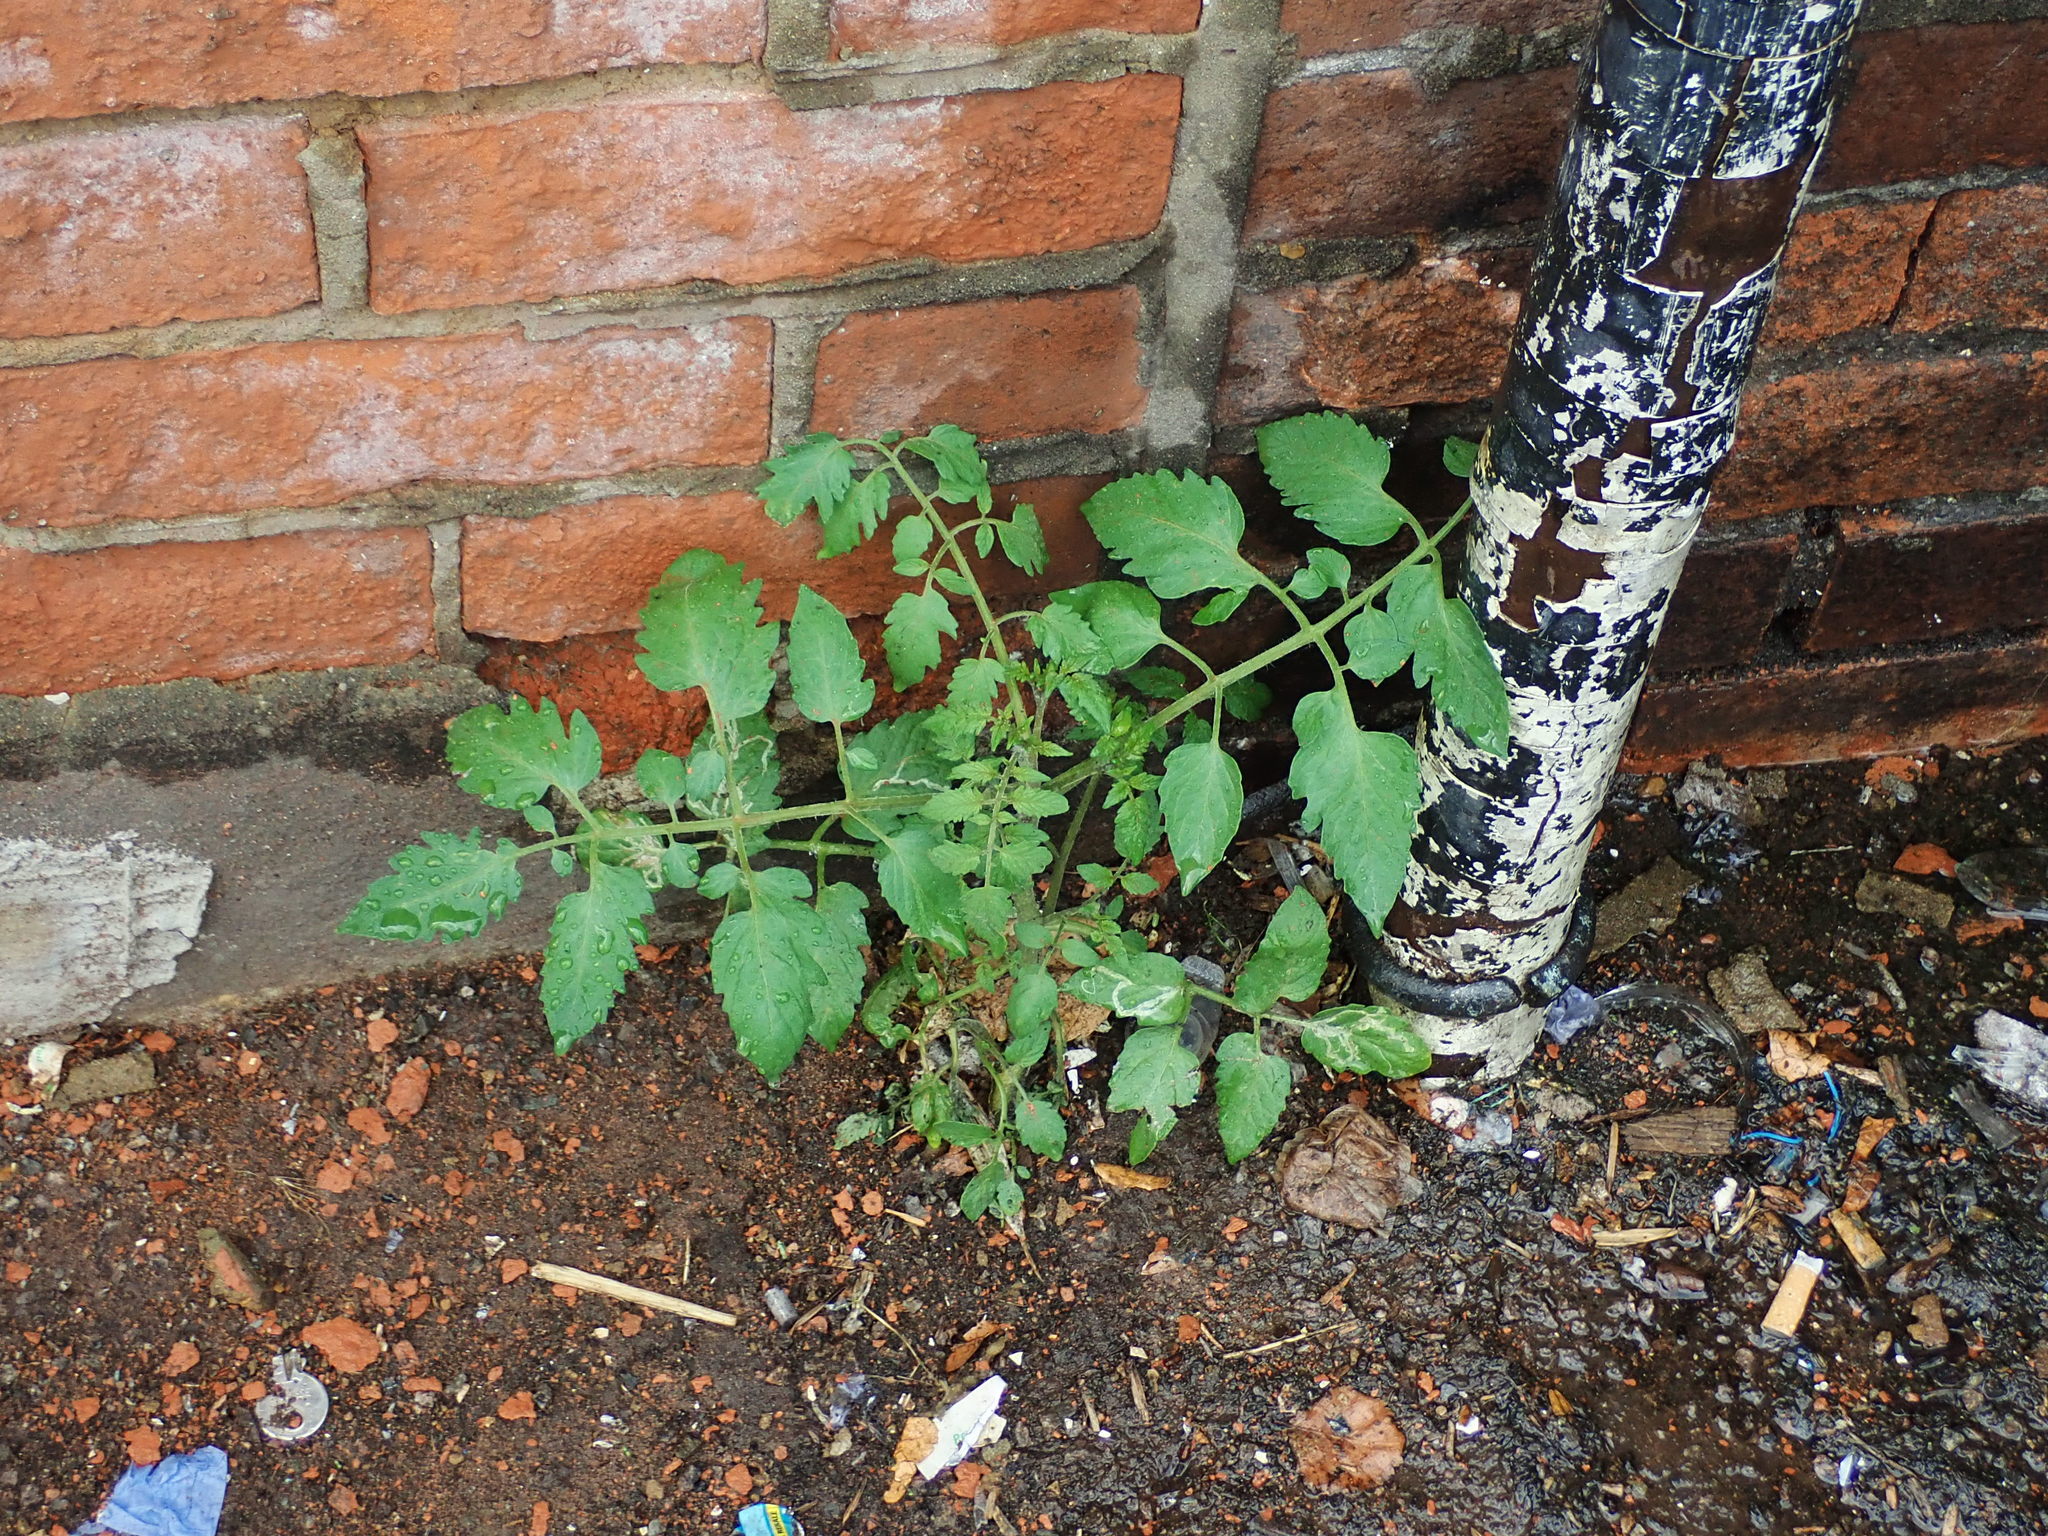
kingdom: Plantae
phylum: Tracheophyta
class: Magnoliopsida
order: Solanales
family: Solanaceae
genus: Solanum
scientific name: Solanum lycopersicum
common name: Garden tomato
